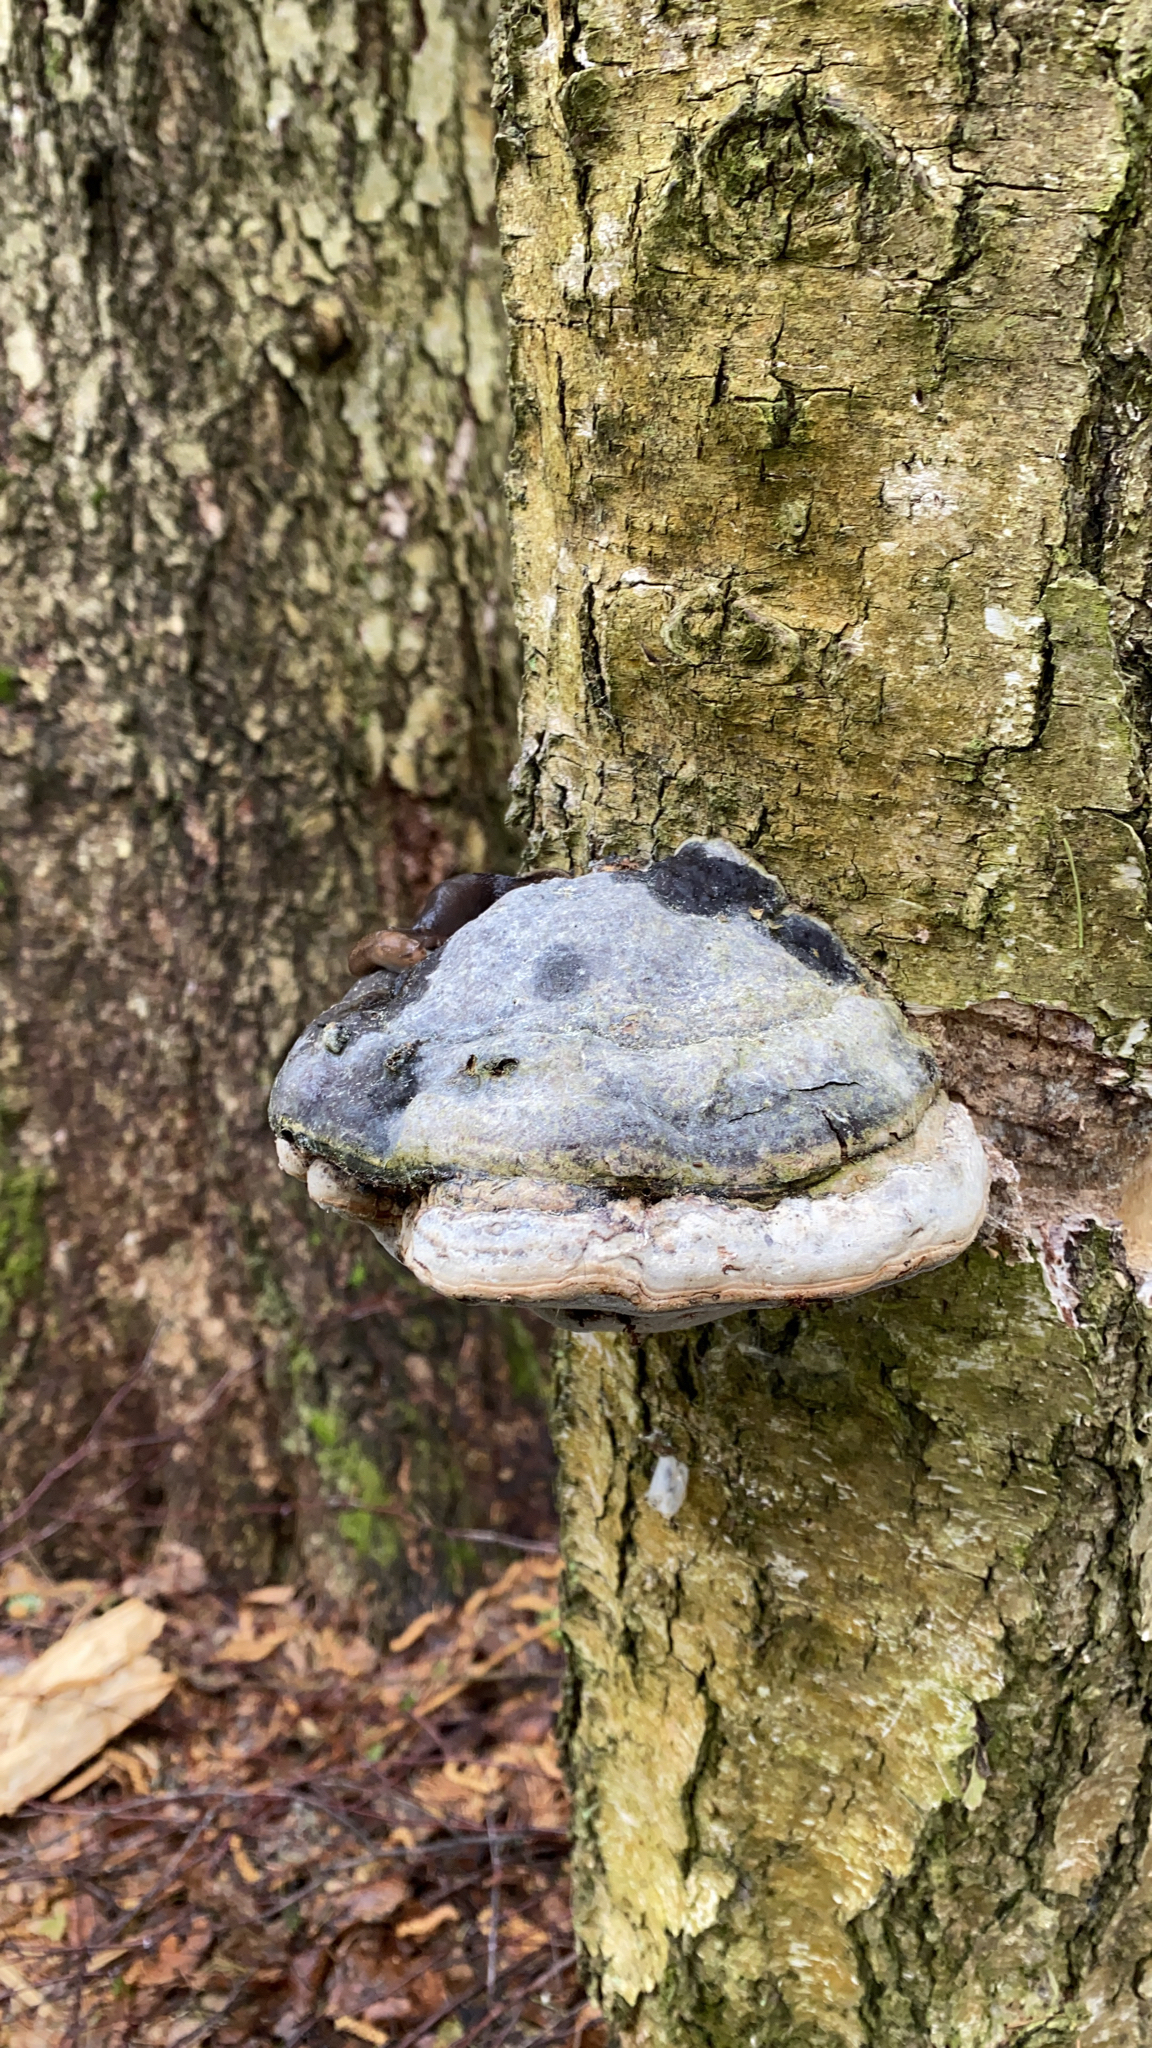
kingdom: Fungi
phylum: Basidiomycota
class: Agaricomycetes
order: Polyporales
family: Polyporaceae
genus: Fomes
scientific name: Fomes fomentarius
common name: Hoof fungus
